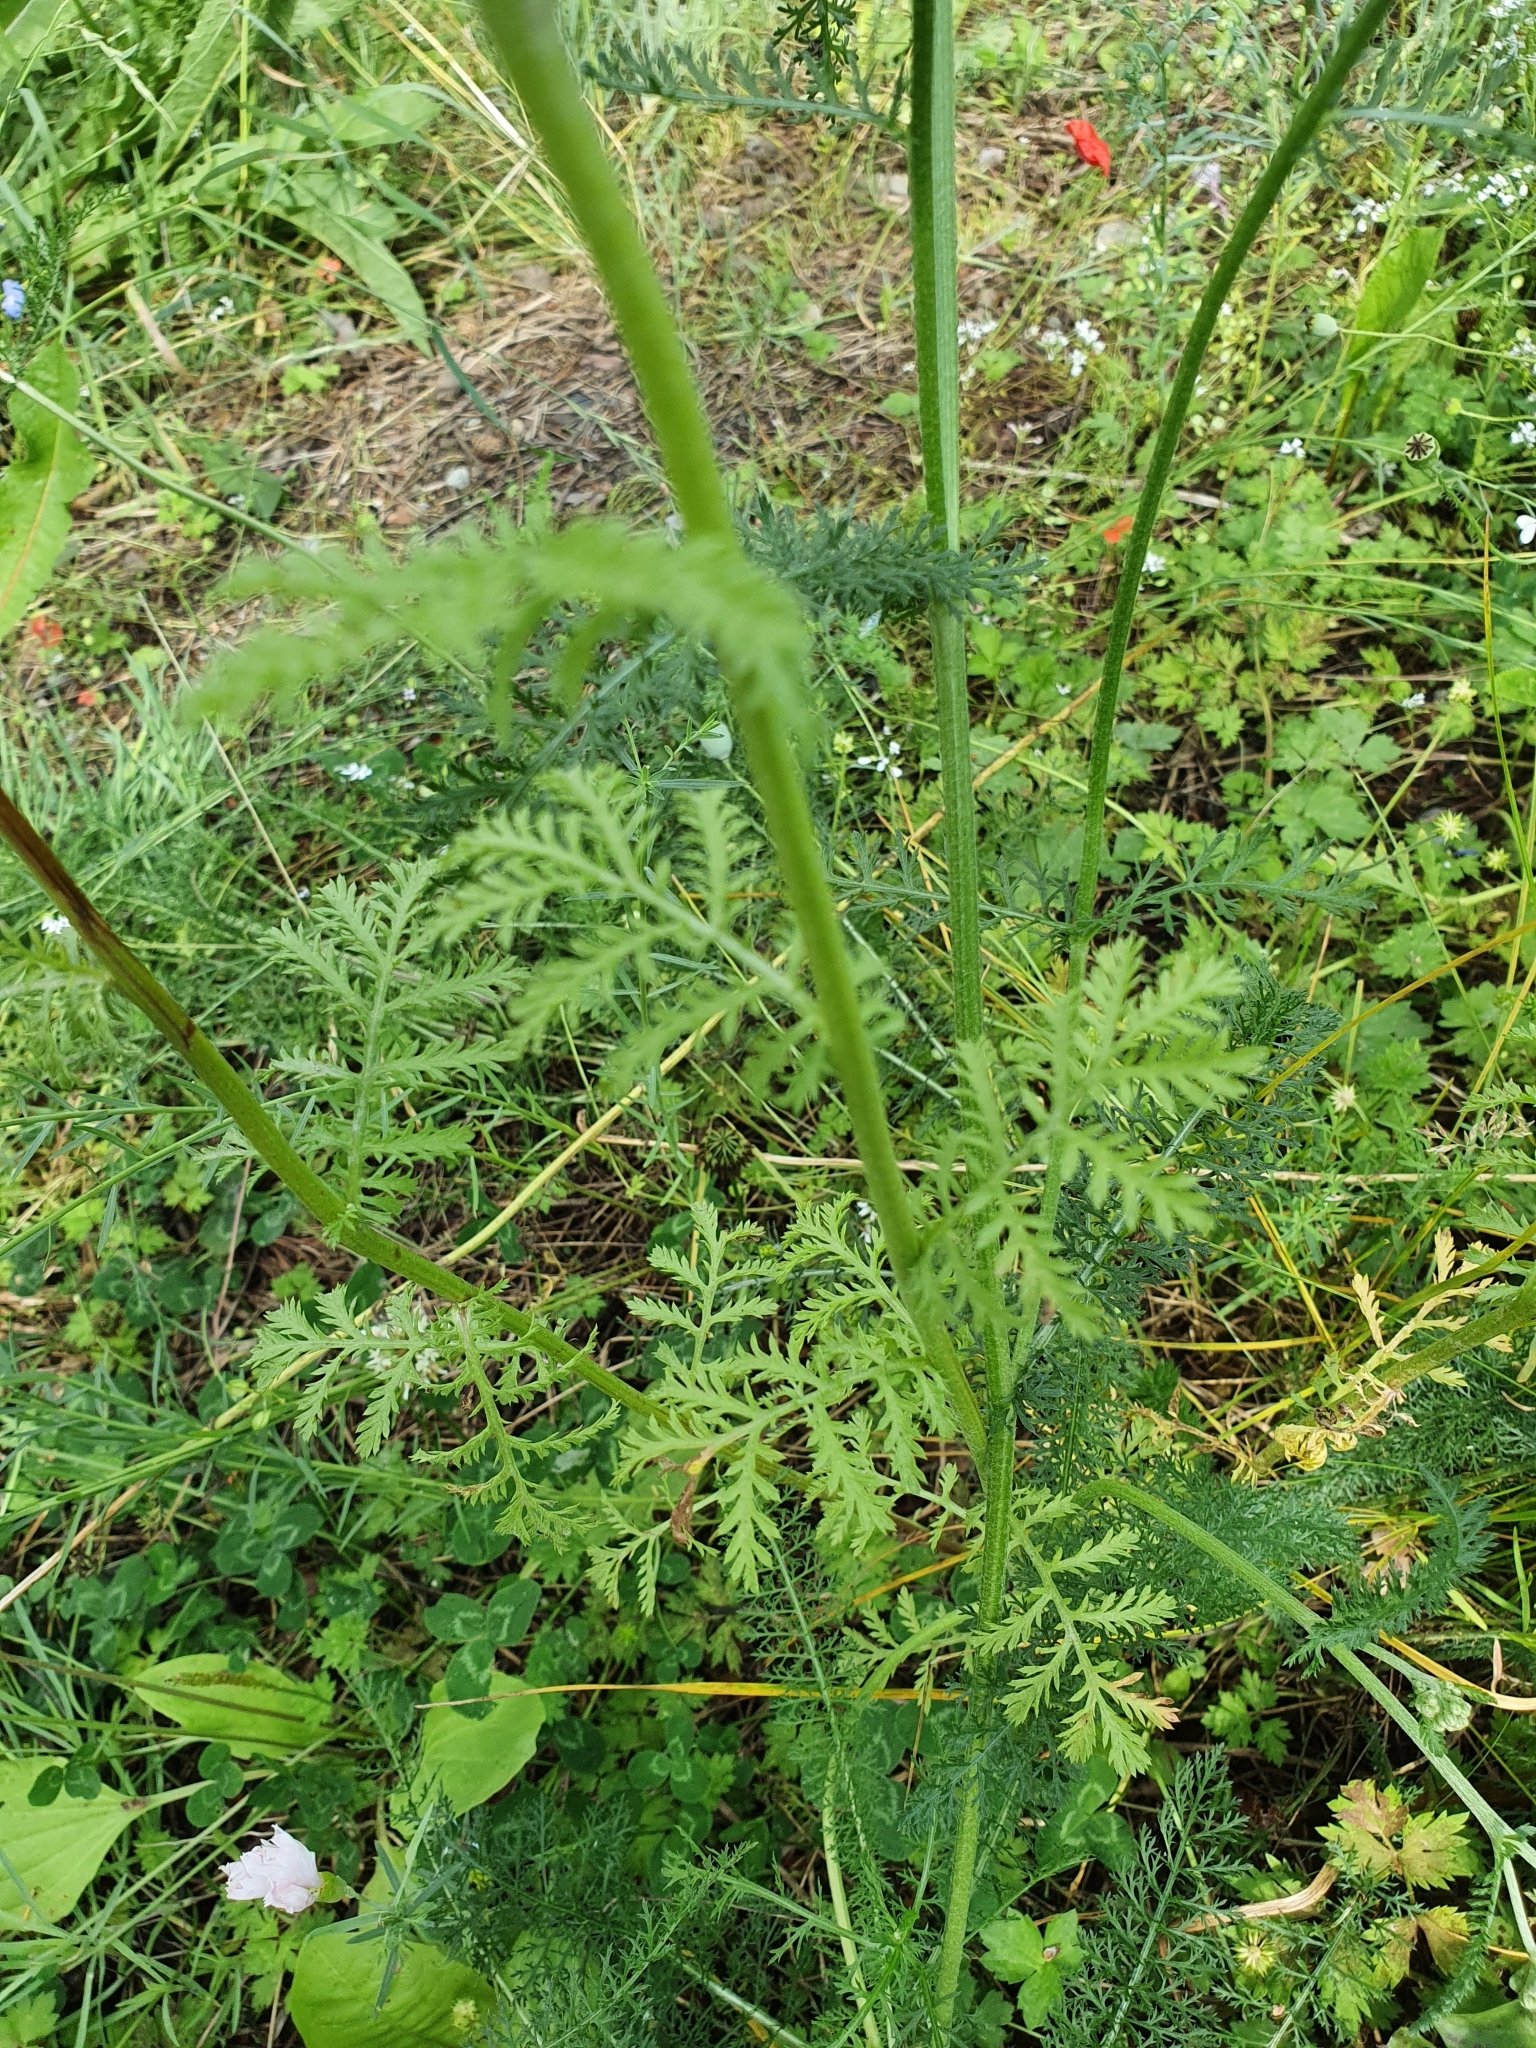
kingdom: Plantae
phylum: Tracheophyta
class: Magnoliopsida
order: Asterales
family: Asteraceae
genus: Cota
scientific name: Cota tinctoria
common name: Golden chamomile
